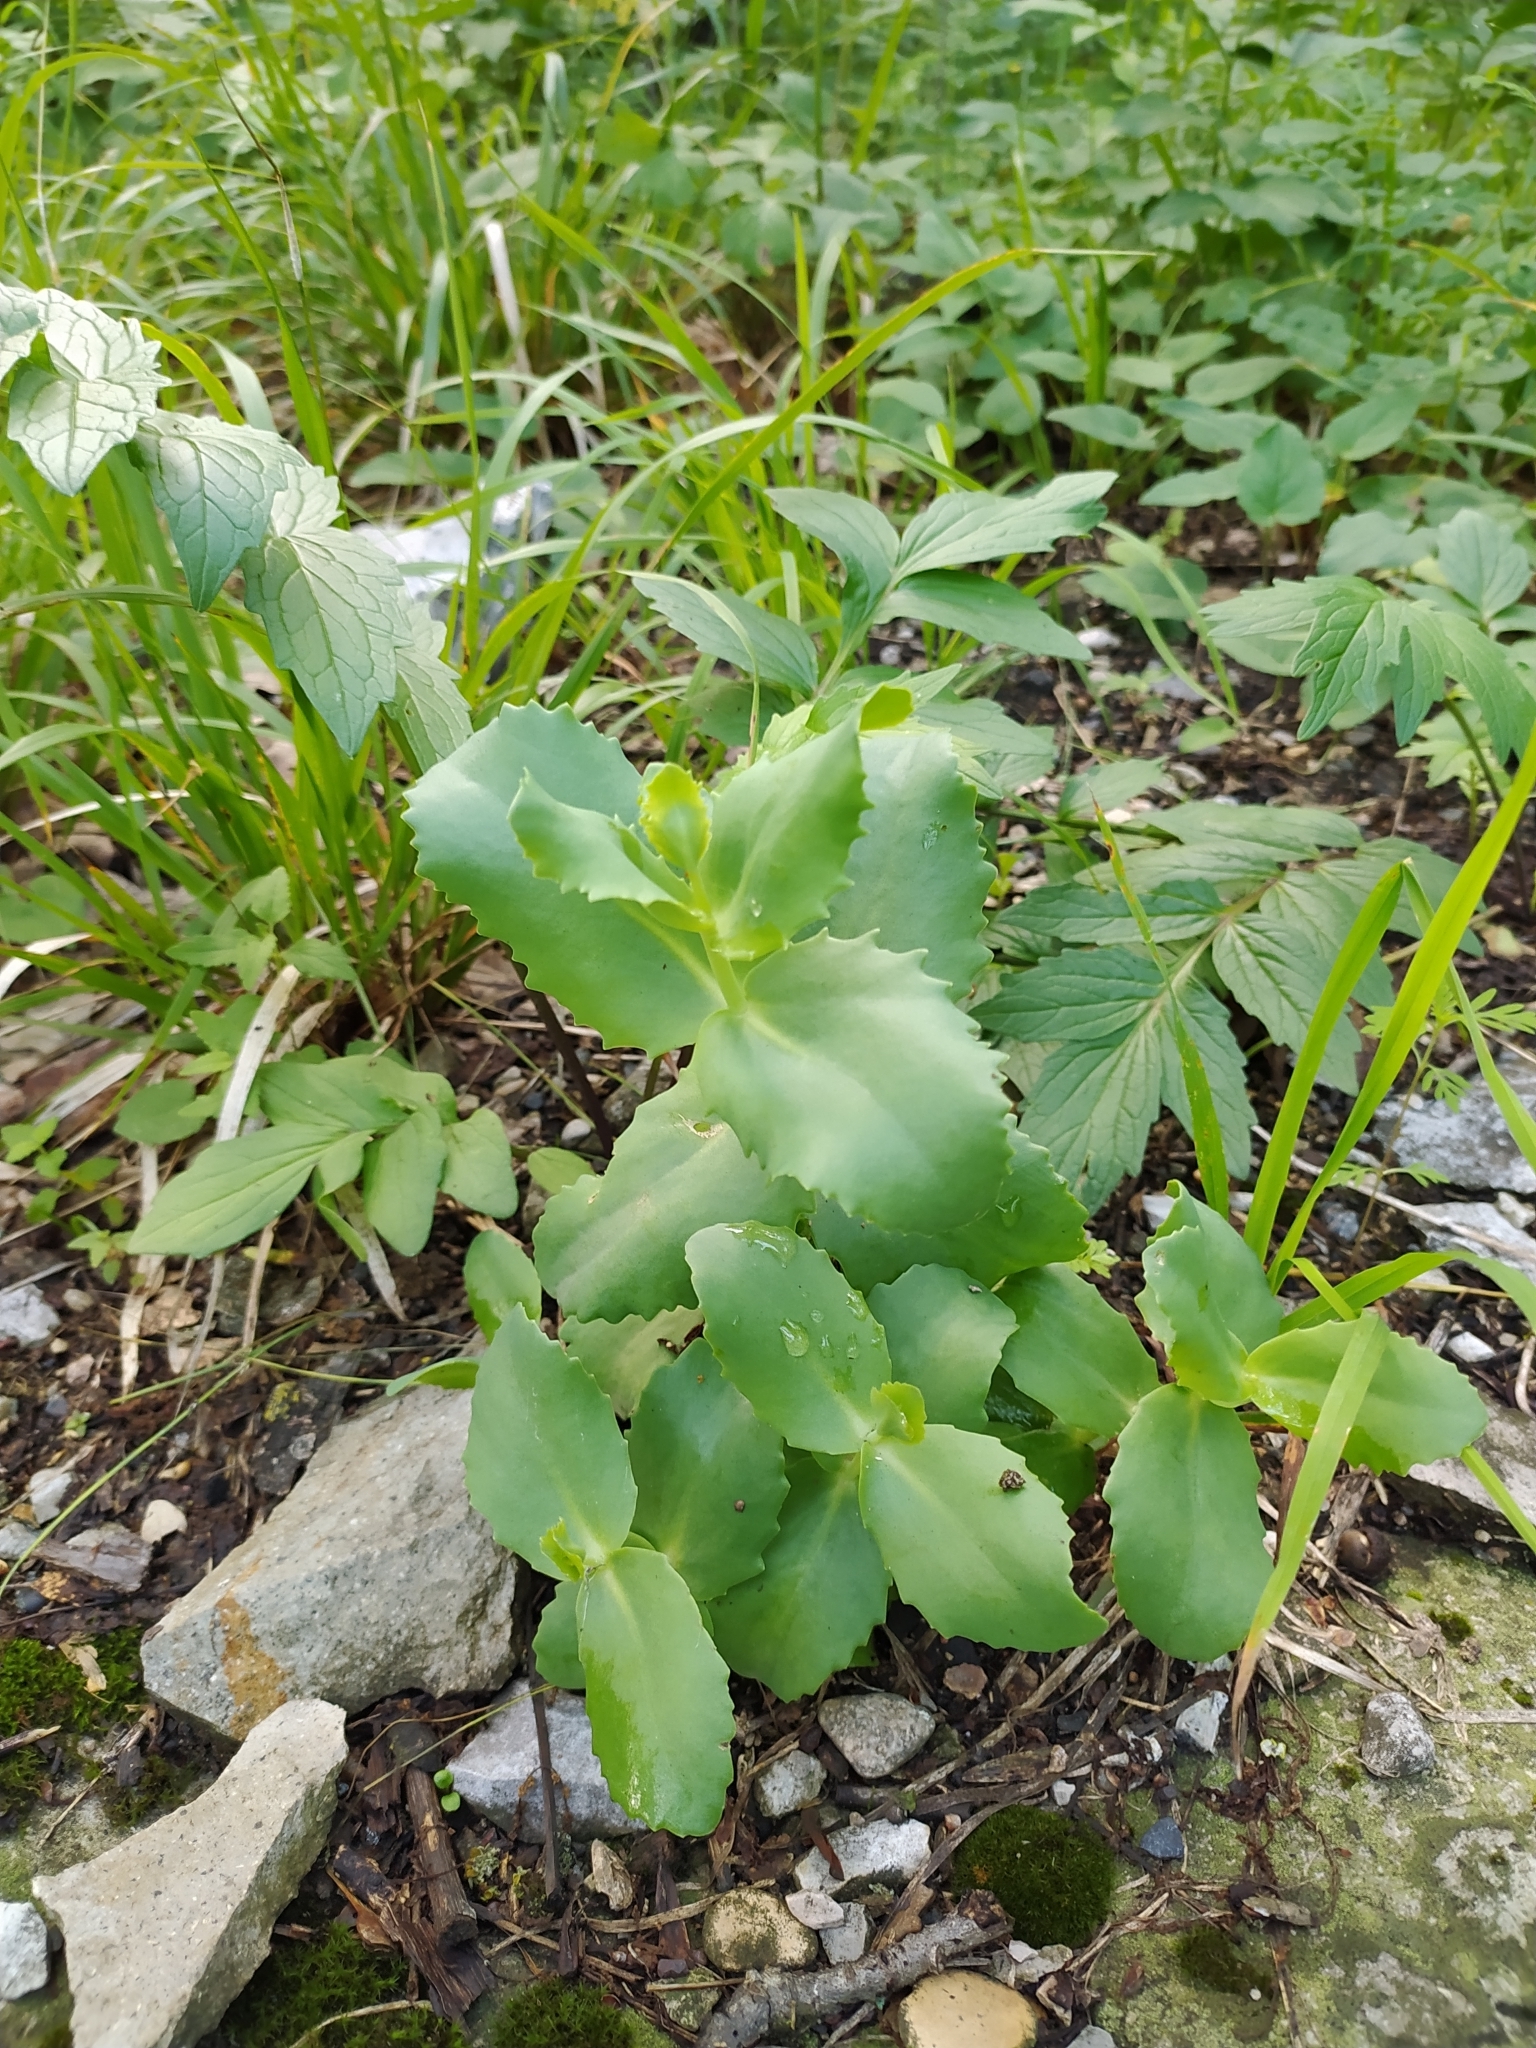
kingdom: Plantae
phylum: Tracheophyta
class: Magnoliopsida
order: Saxifragales
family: Crassulaceae
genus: Hylotelephium
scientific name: Hylotelephium maximum
